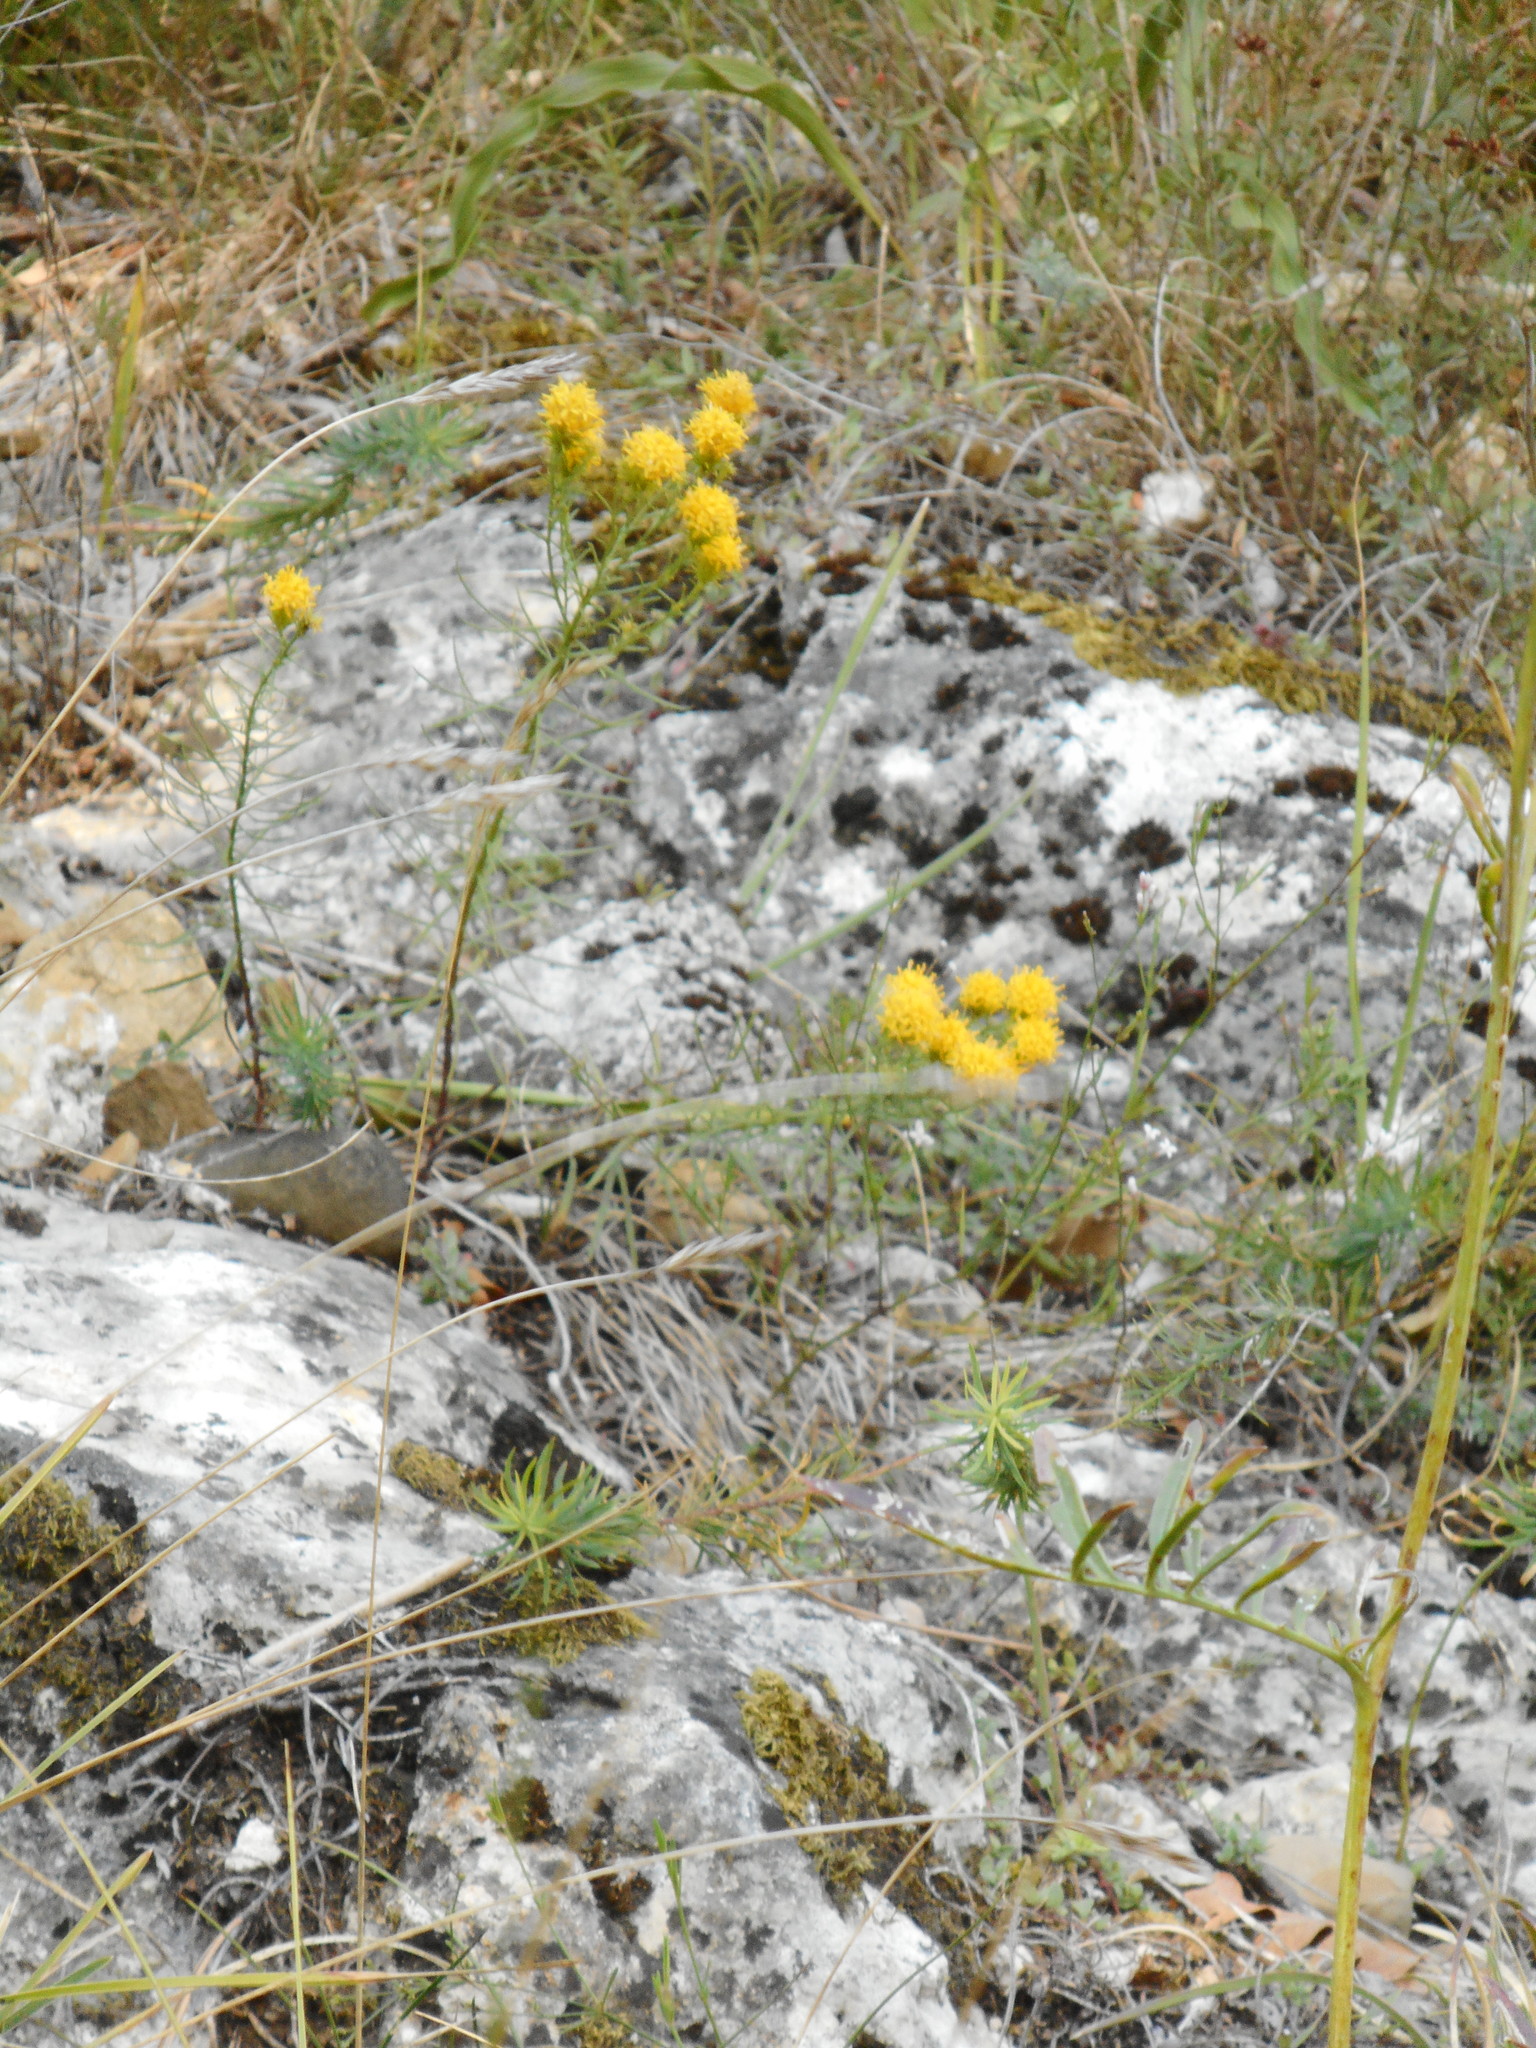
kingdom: Plantae
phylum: Tracheophyta
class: Magnoliopsida
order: Asterales
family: Asteraceae
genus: Galatella
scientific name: Galatella linosyris
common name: Goldilocks aster
